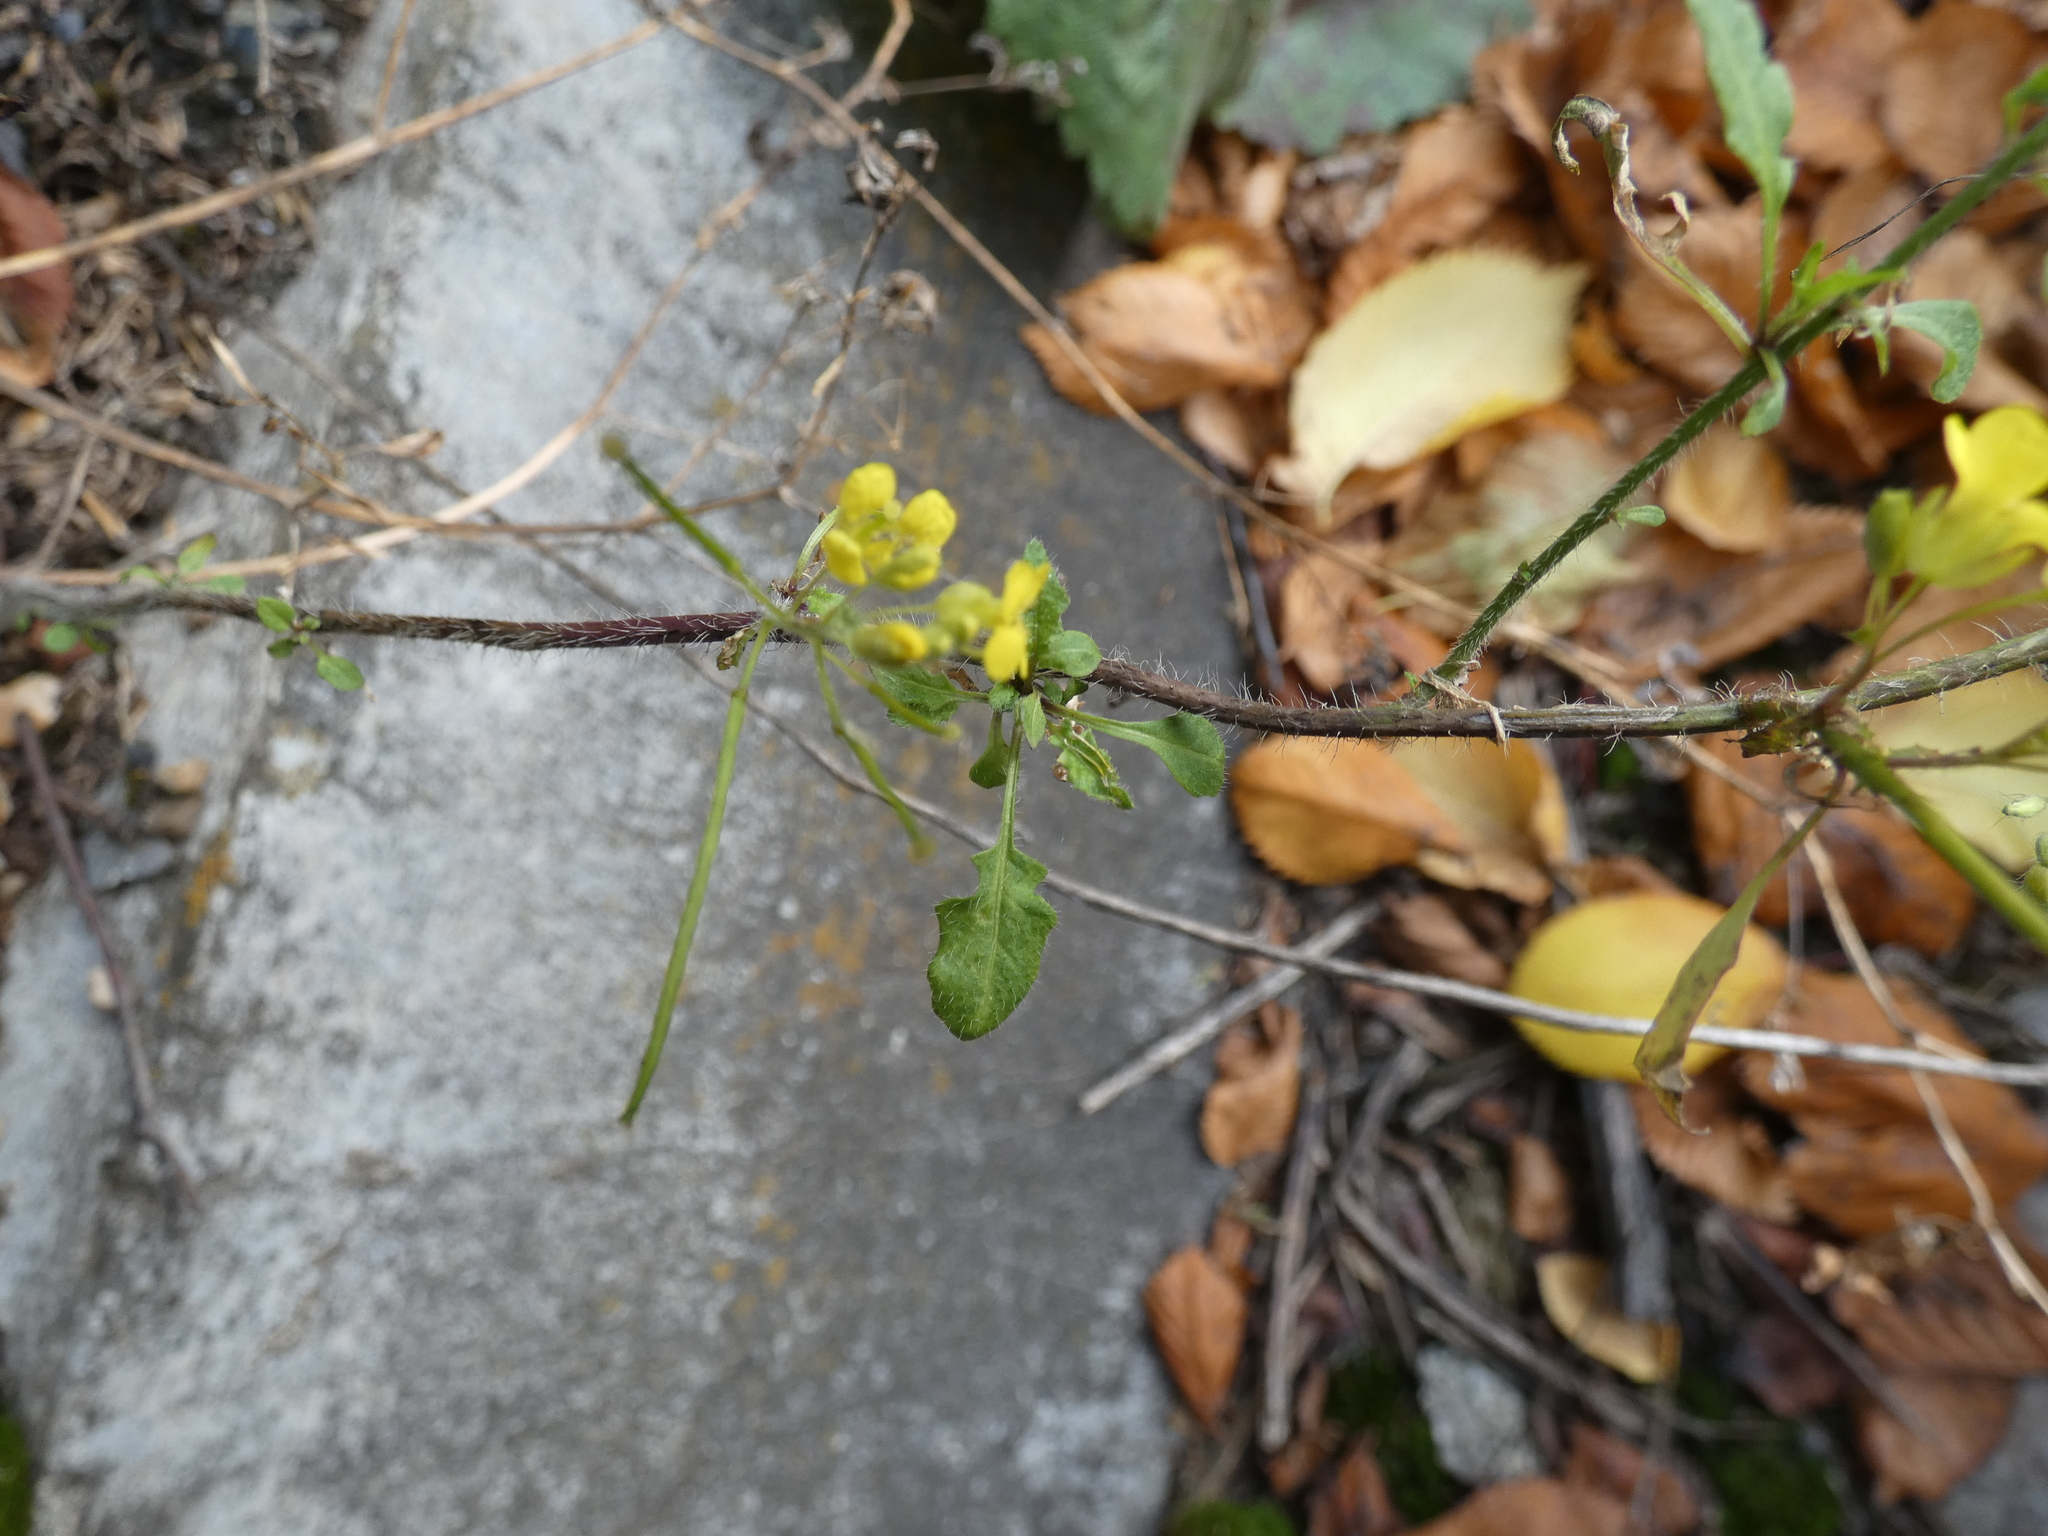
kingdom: Plantae
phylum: Tracheophyta
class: Magnoliopsida
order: Brassicales
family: Brassicaceae
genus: Sisymbrium
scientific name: Sisymbrium loeselii
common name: False london-rocket
